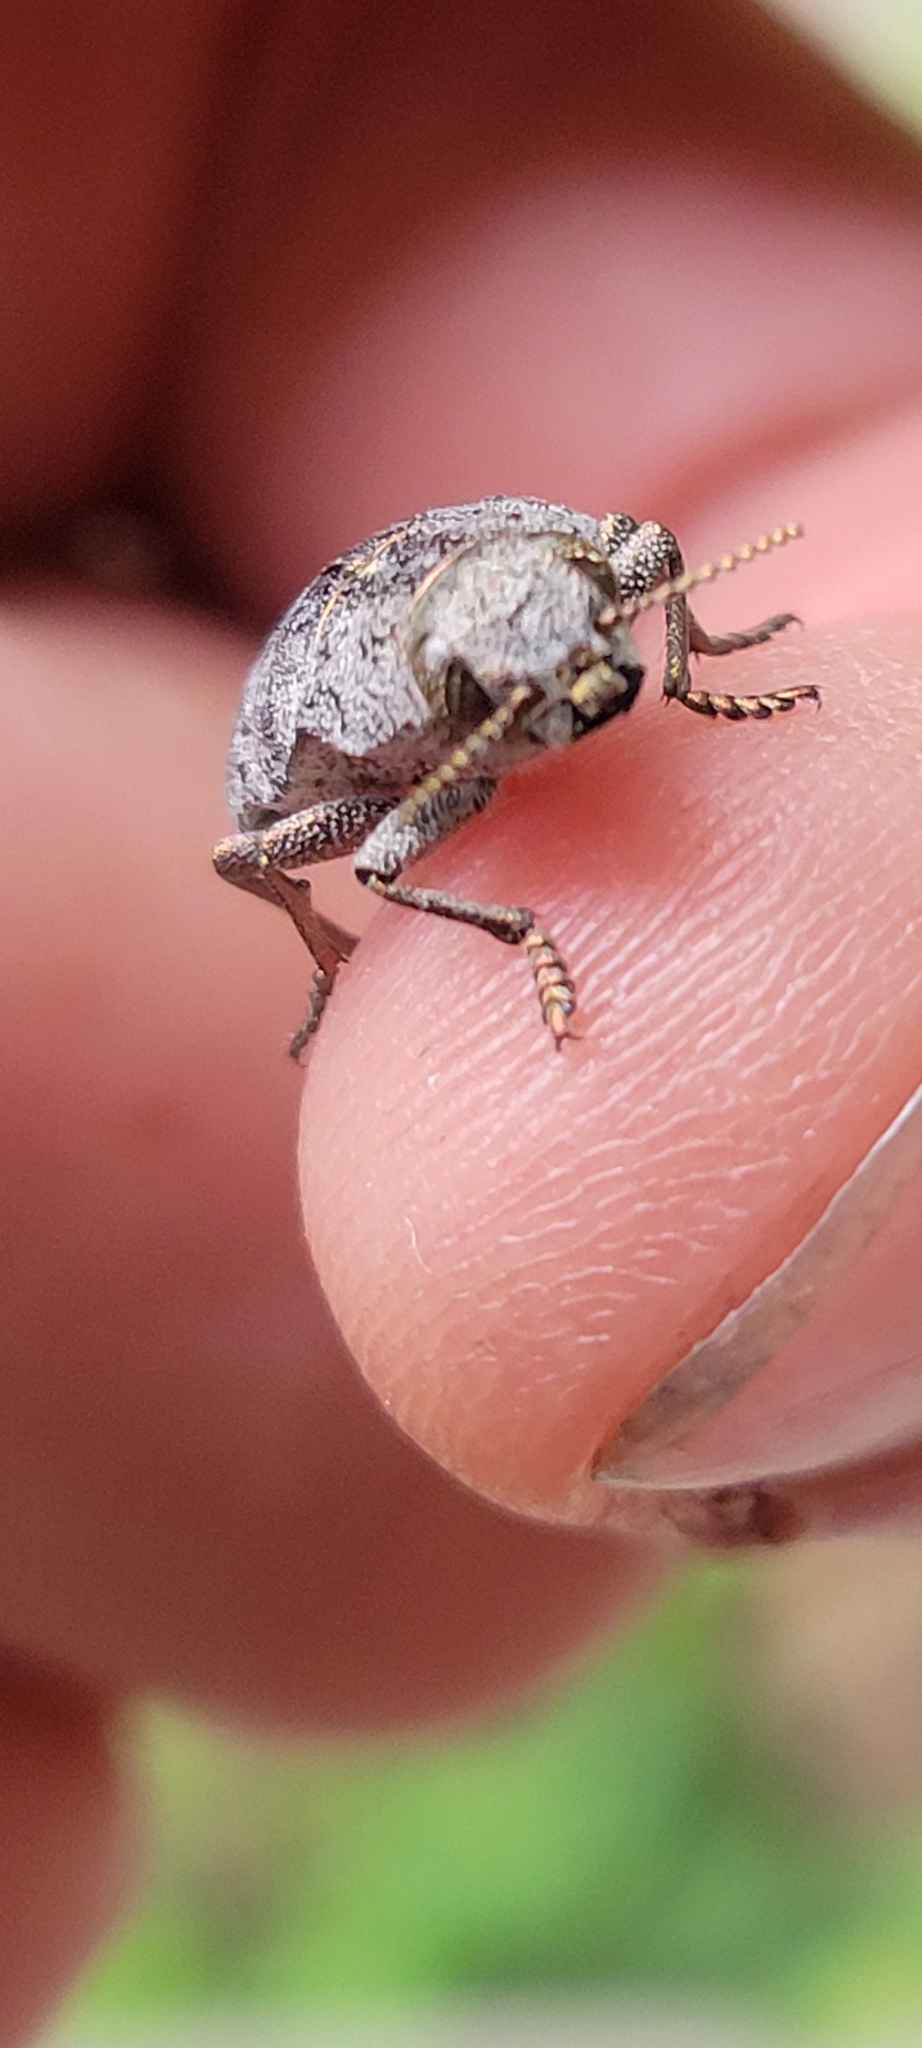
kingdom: Animalia
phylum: Arthropoda
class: Insecta
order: Coleoptera
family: Buprestidae
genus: Dicerca
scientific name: Dicerca tenebrica
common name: Flat-headed poplar borer
